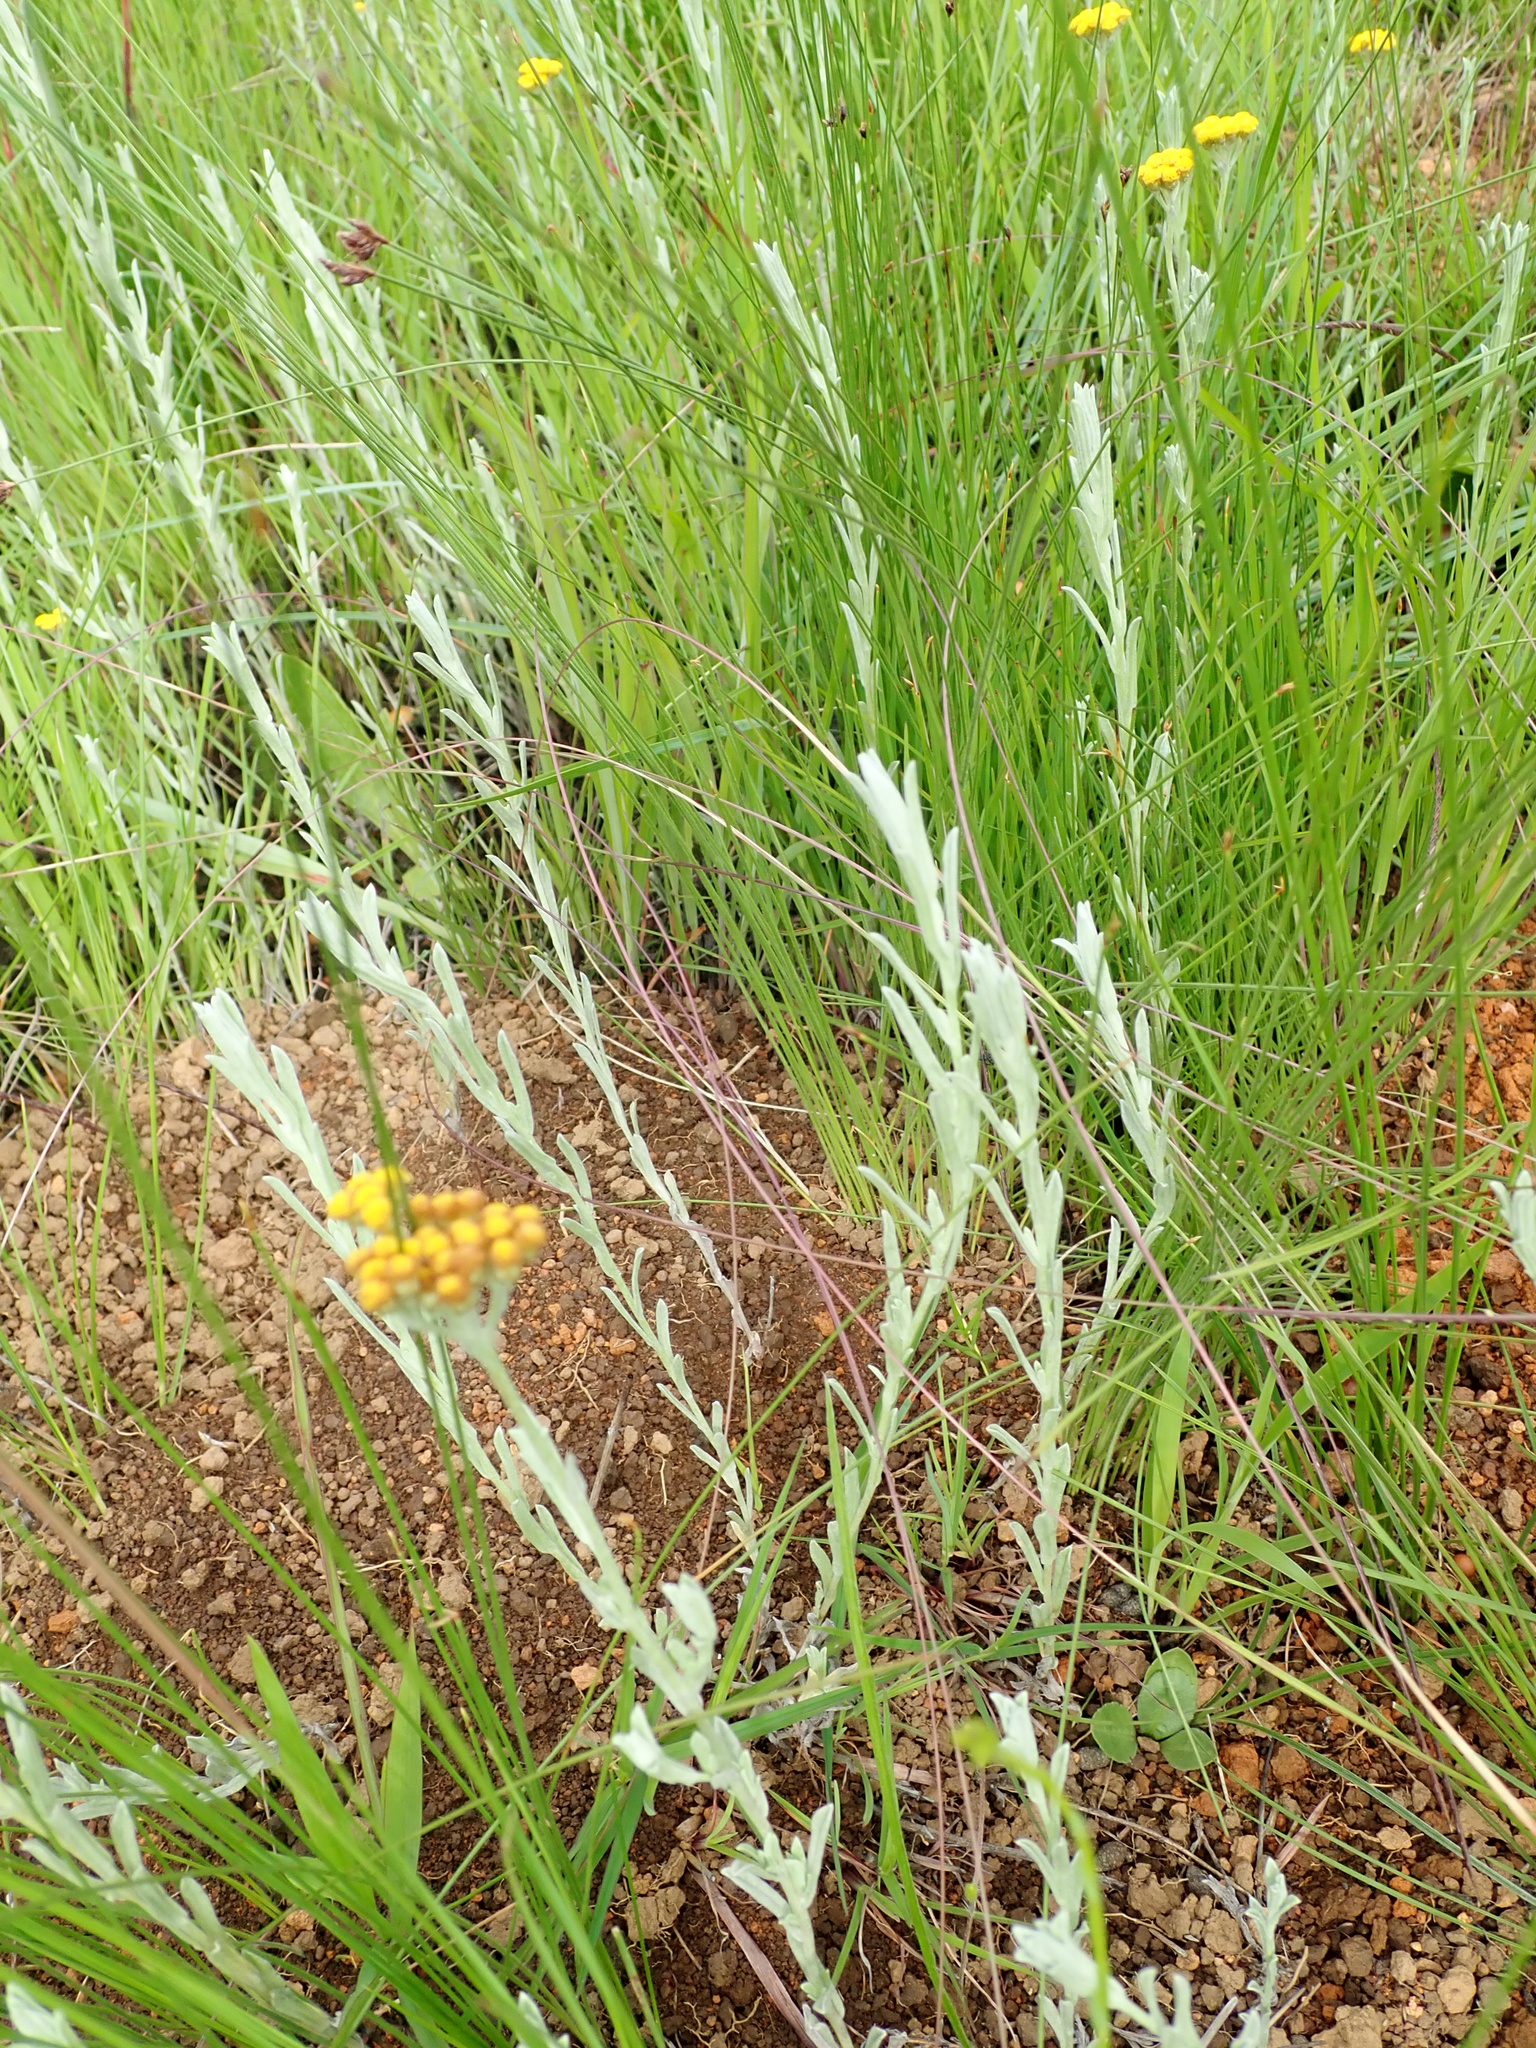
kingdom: Plantae
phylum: Tracheophyta
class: Magnoliopsida
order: Asterales
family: Asteraceae
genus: Helichrysum
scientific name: Helichrysum aureonitens
